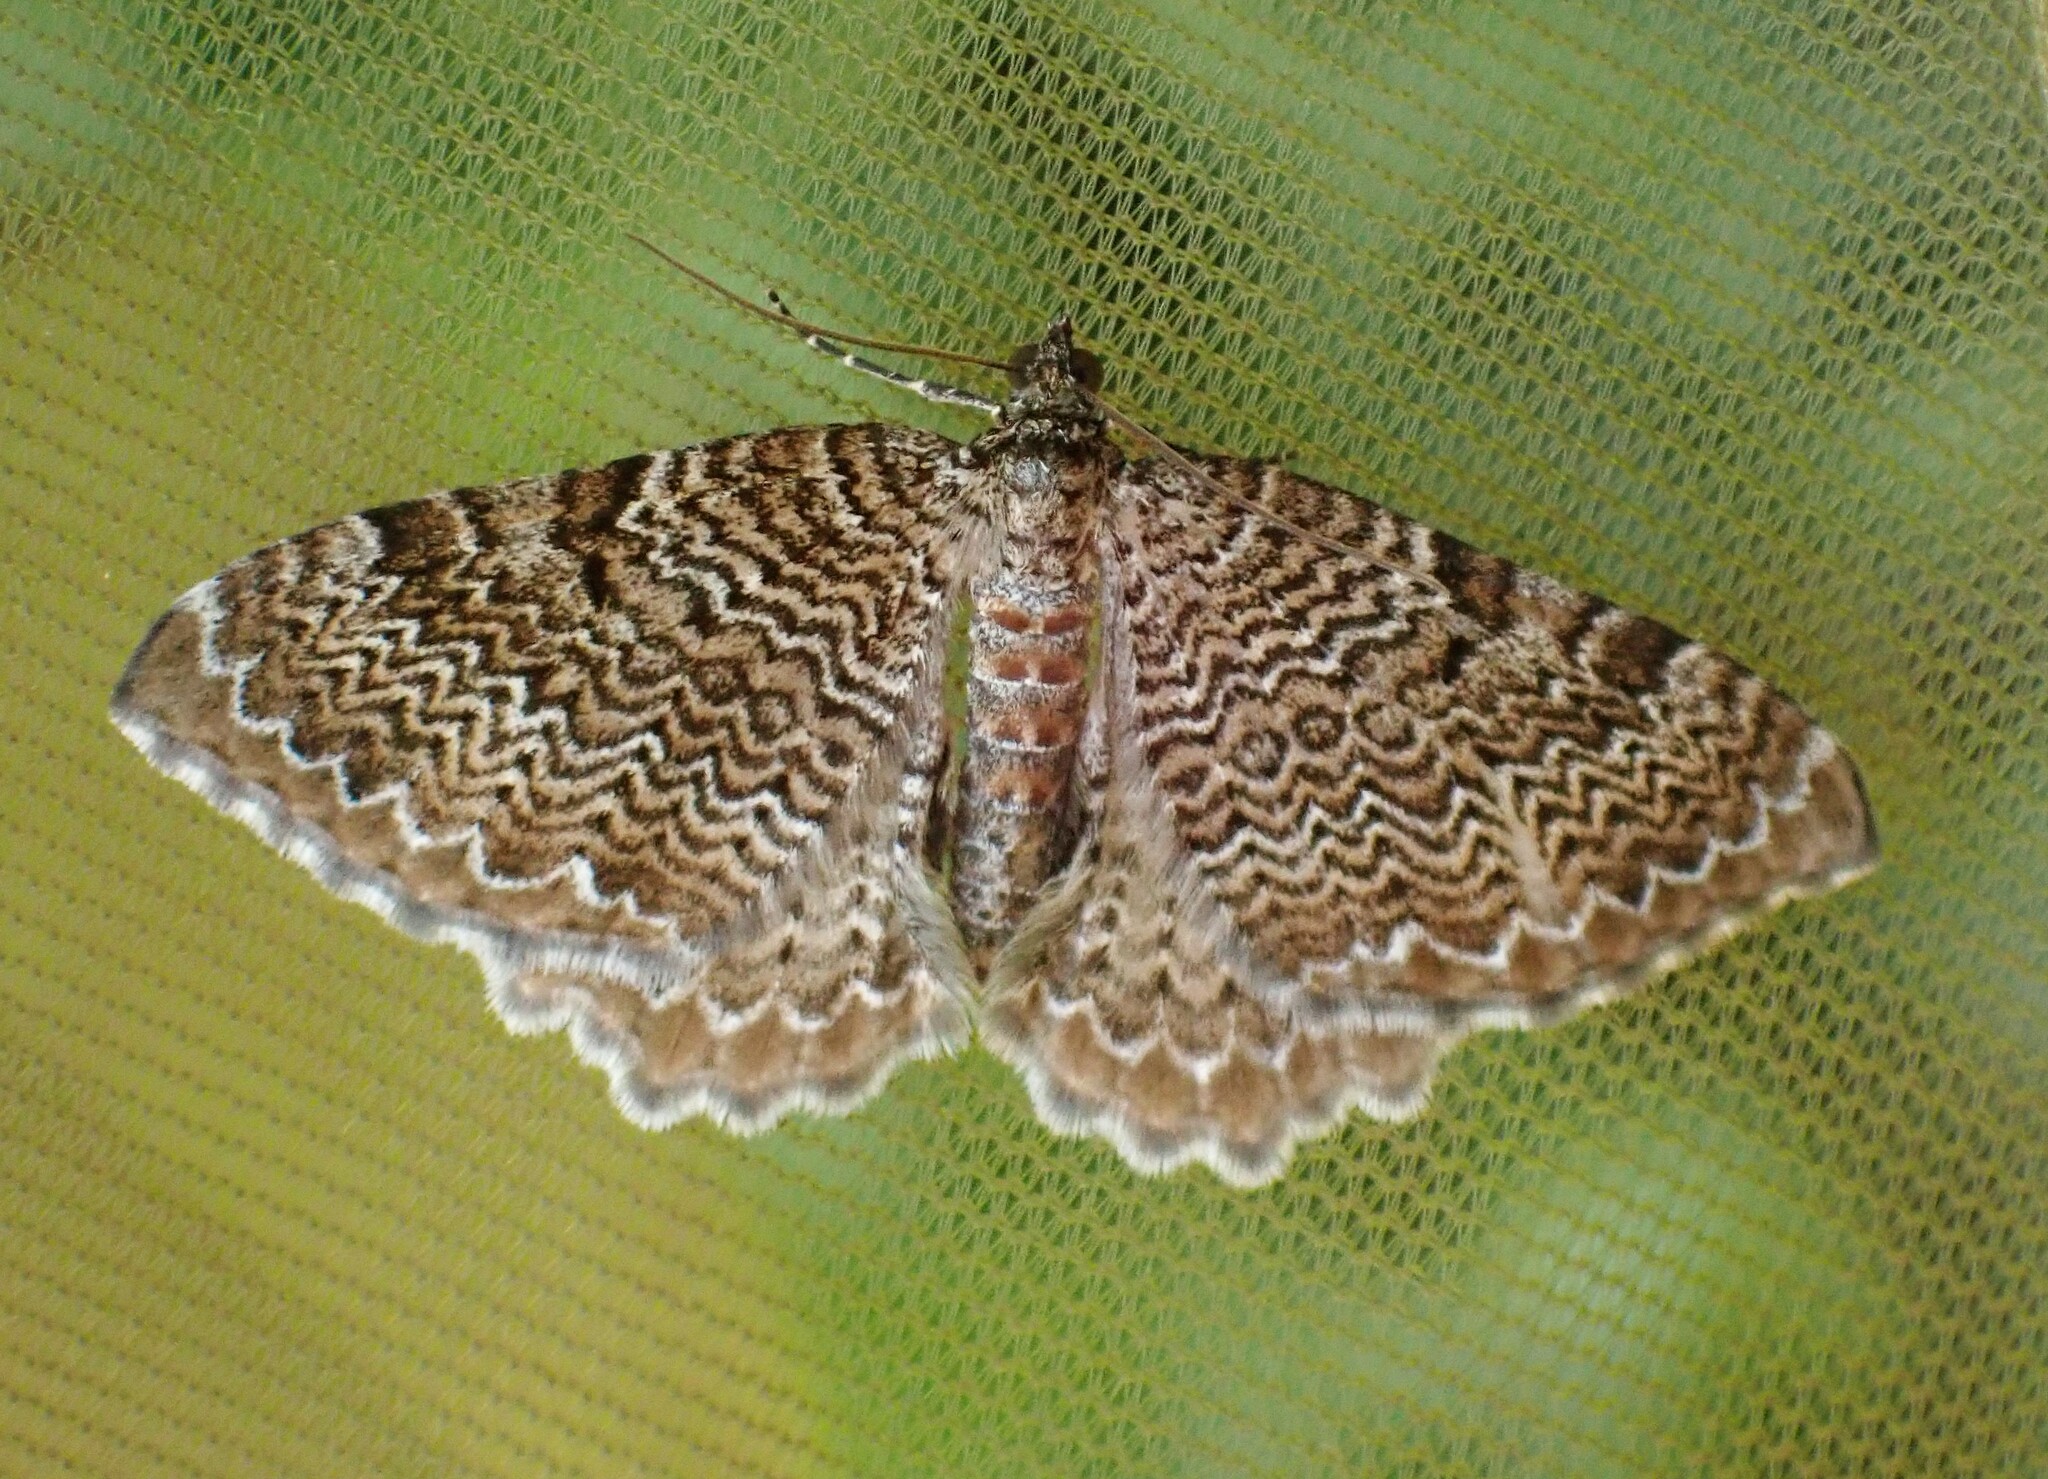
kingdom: Animalia
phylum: Arthropoda
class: Insecta
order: Lepidoptera
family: Geometridae
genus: Rheumaptera
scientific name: Rheumaptera
